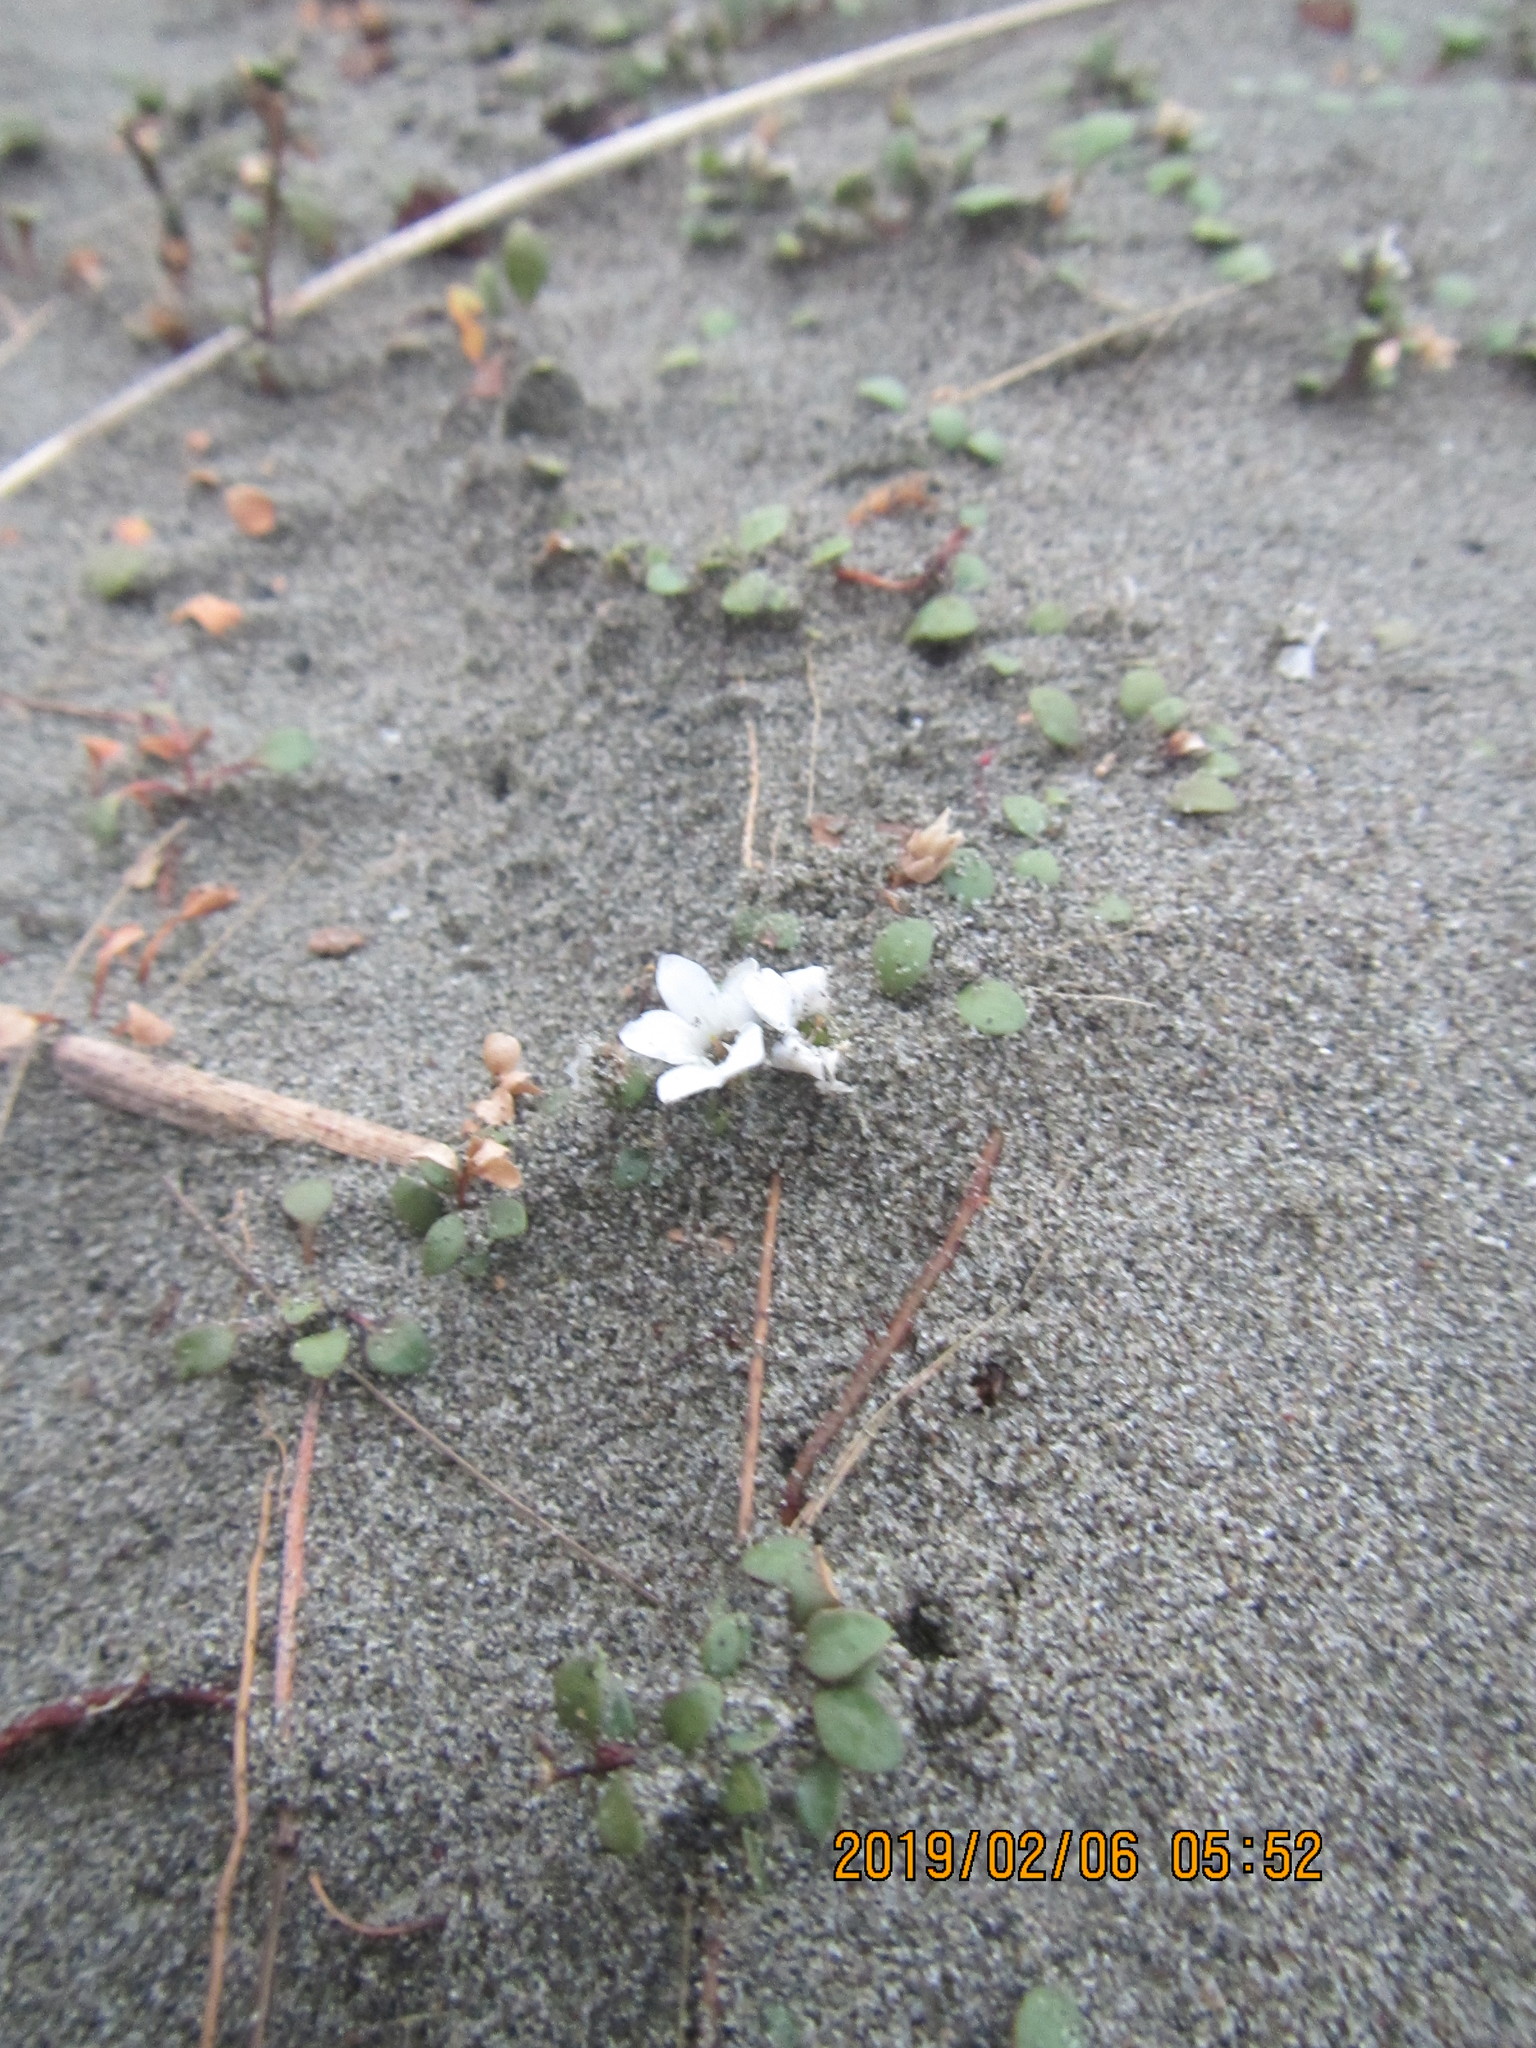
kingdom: Plantae
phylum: Tracheophyta
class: Magnoliopsida
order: Ericales
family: Primulaceae
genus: Samolus
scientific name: Samolus repens
